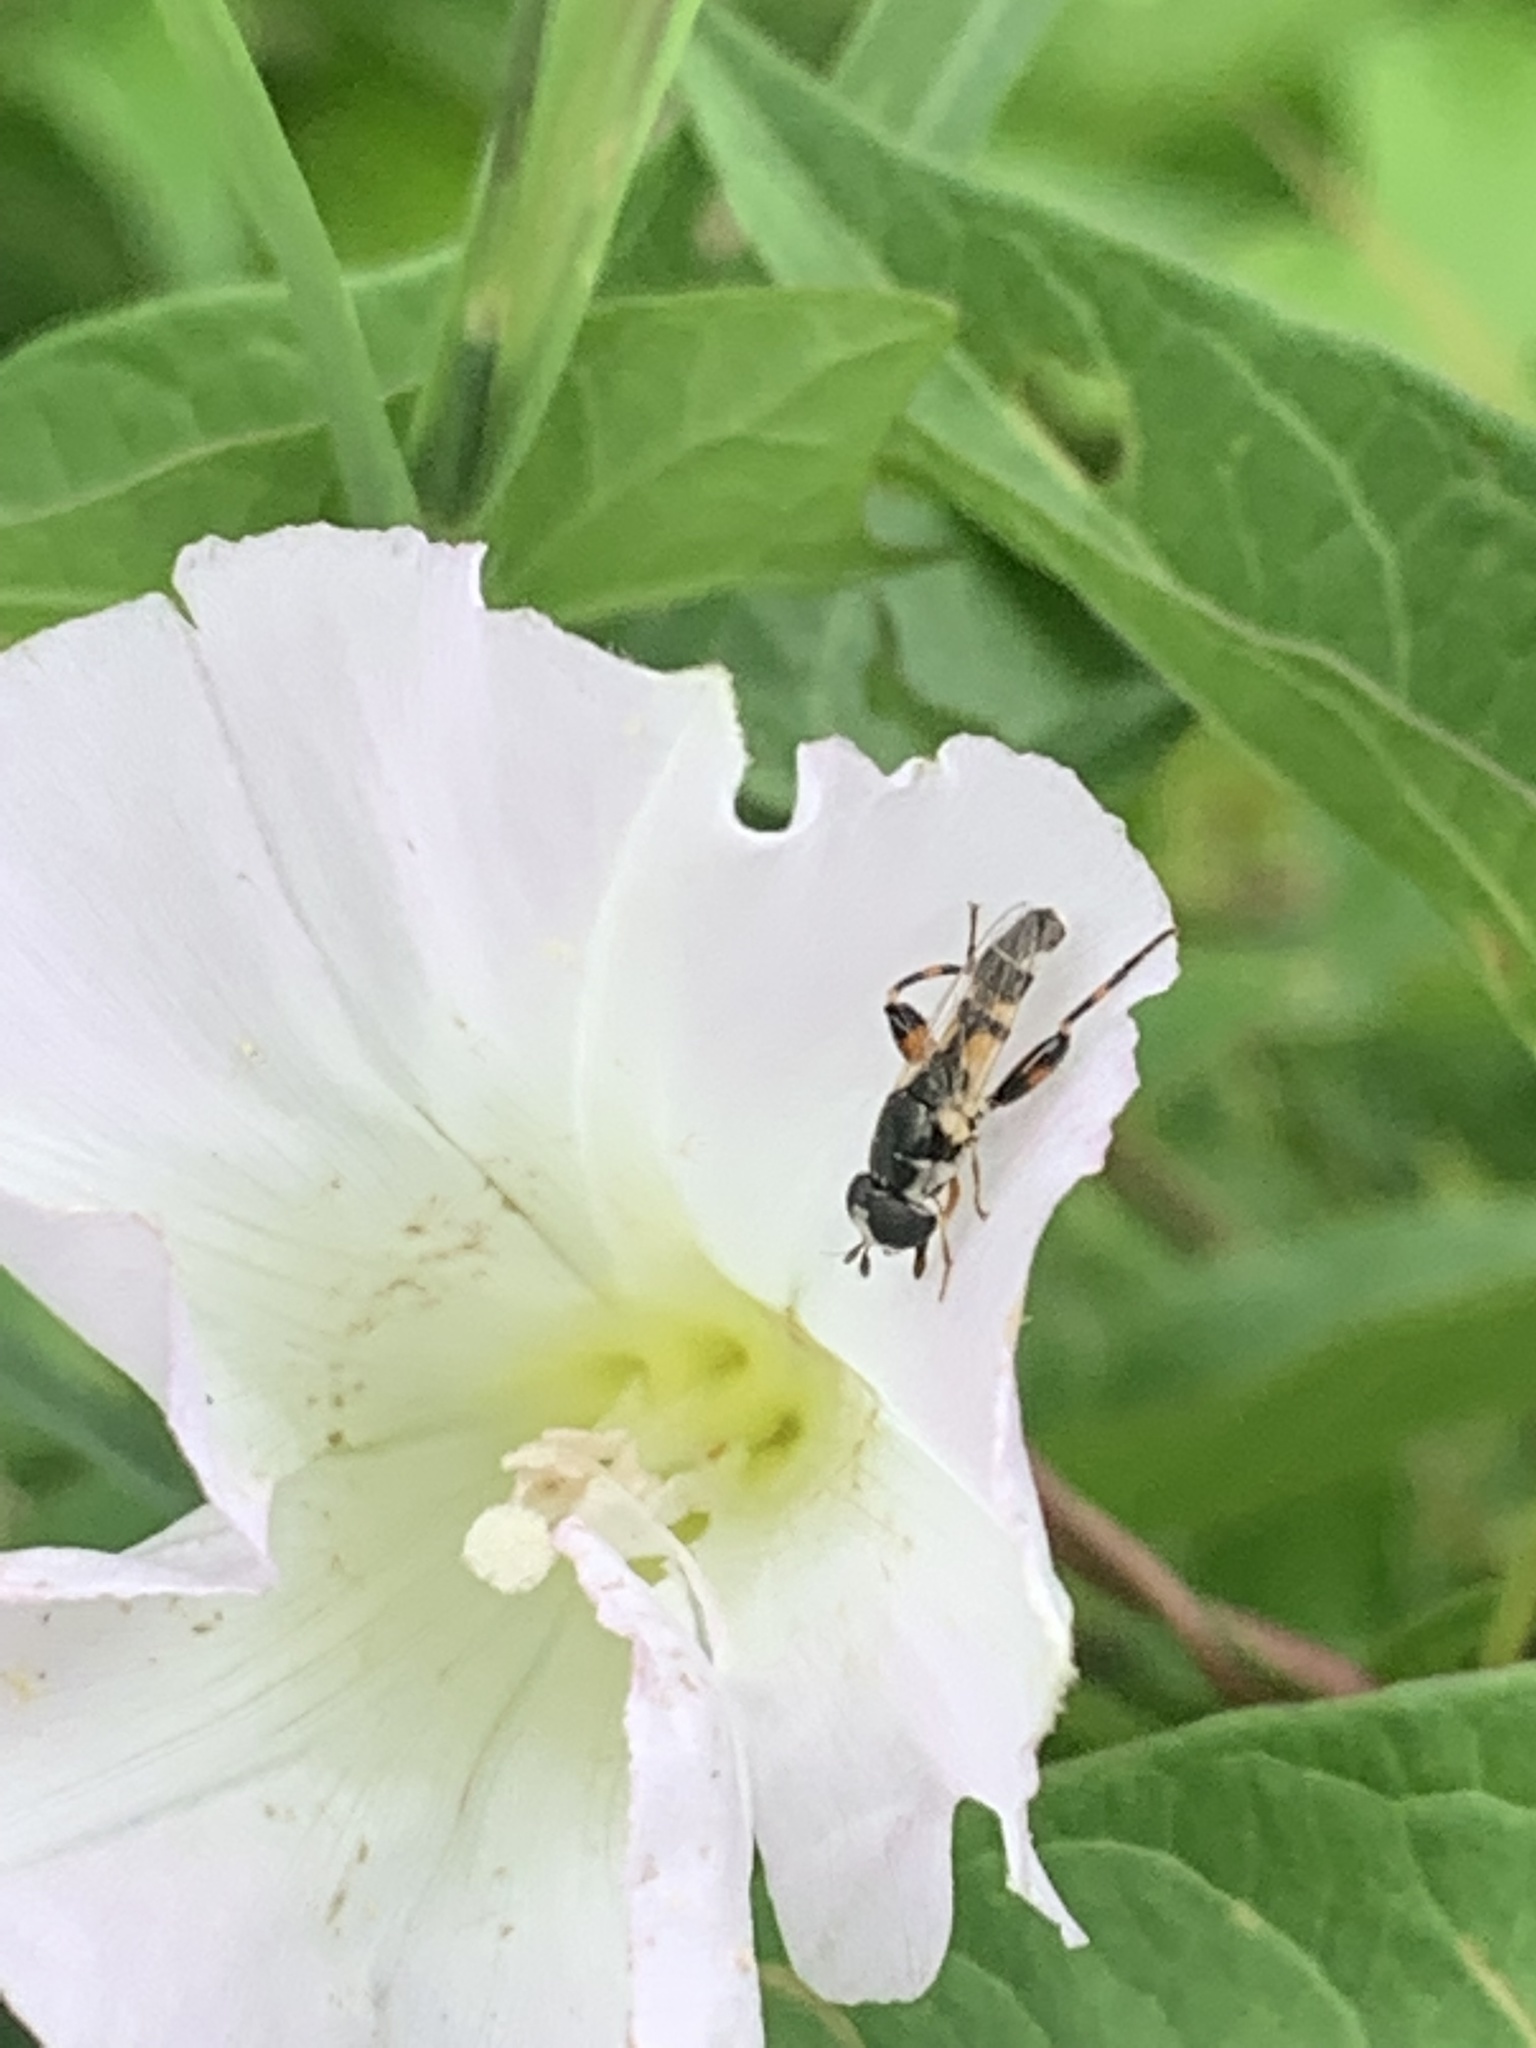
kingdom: Animalia
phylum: Arthropoda
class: Insecta
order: Diptera
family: Syrphidae
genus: Syritta
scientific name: Syritta flaviventris
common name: Syrphid fly
